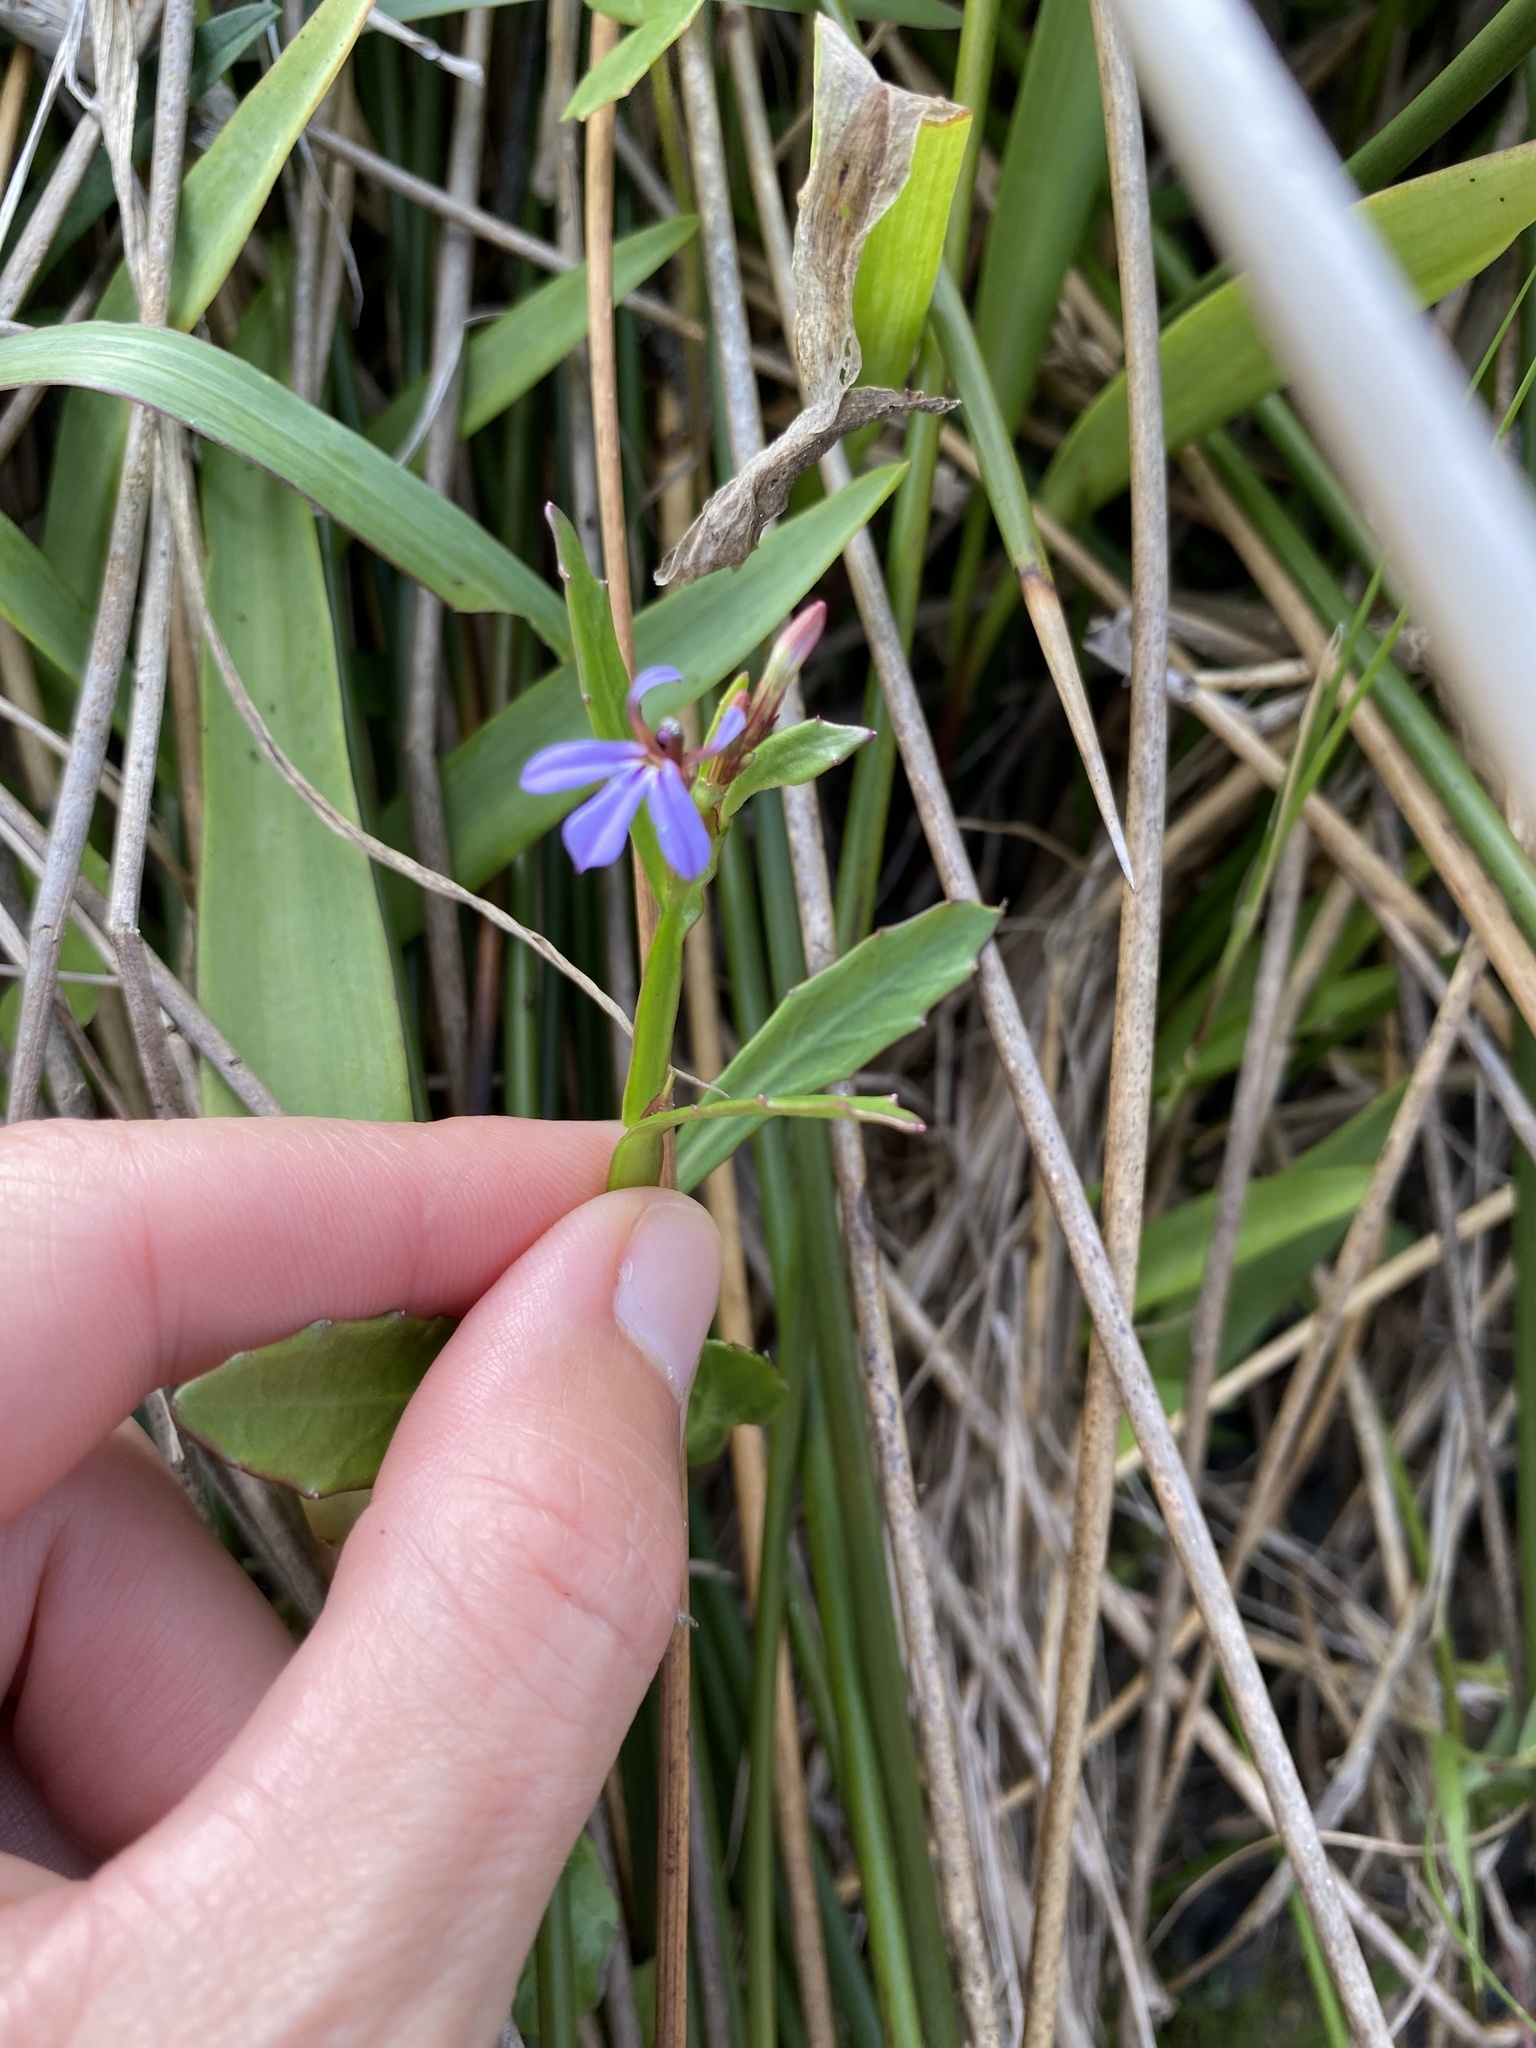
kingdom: Plantae
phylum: Tracheophyta
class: Magnoliopsida
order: Asterales
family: Campanulaceae
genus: Lobelia
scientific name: Lobelia anceps
